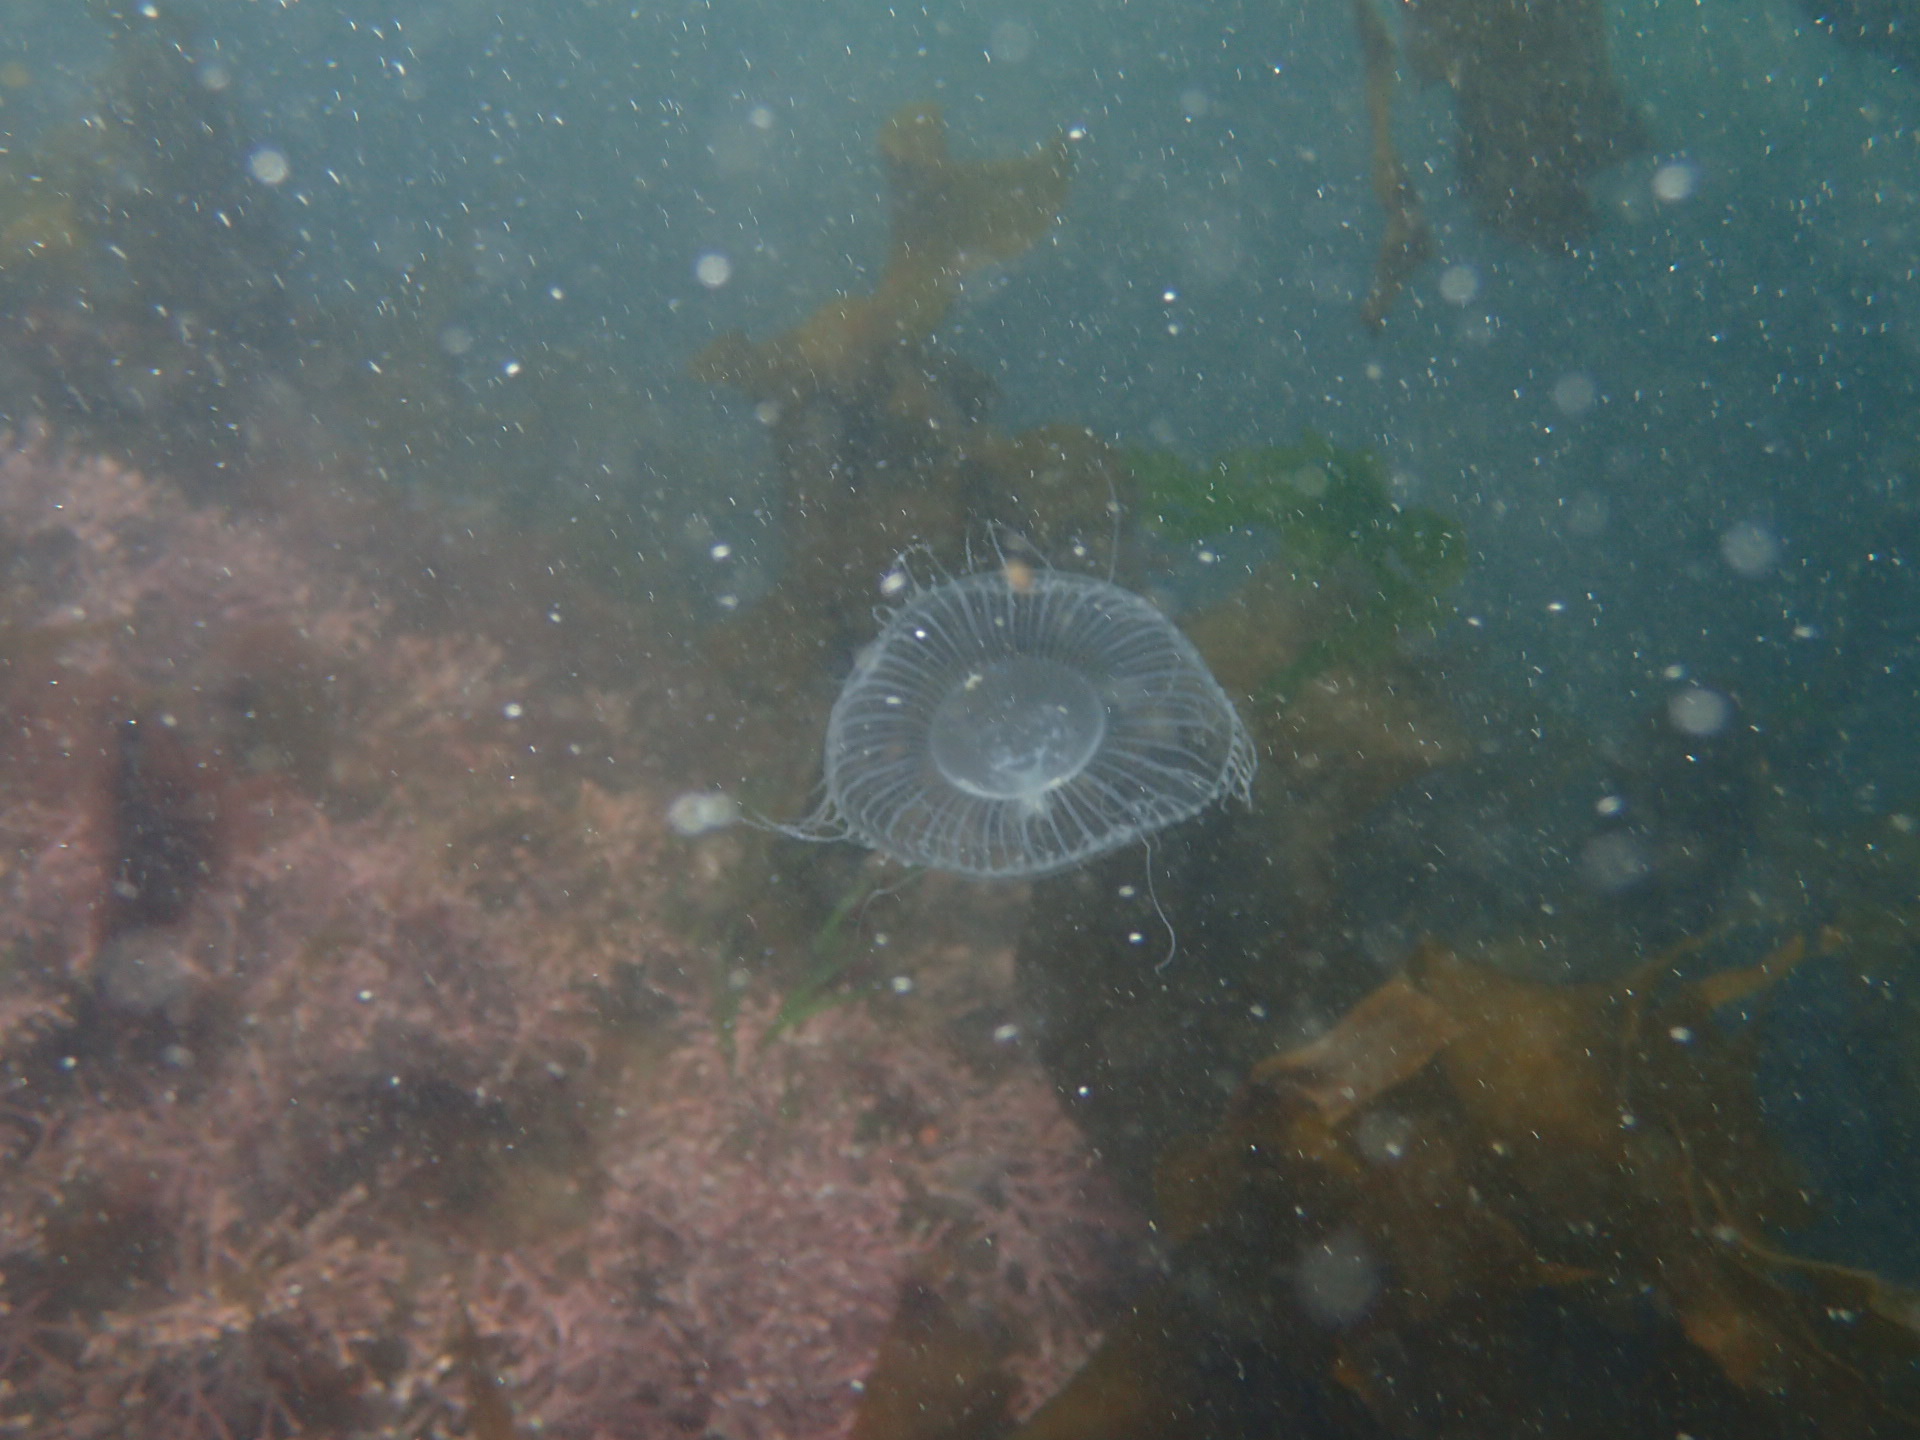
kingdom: Animalia
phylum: Cnidaria
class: Hydrozoa
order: Leptothecata
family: Aequoreidae
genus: Aequorea
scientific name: Aequorea victoria
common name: Water jellyfish
